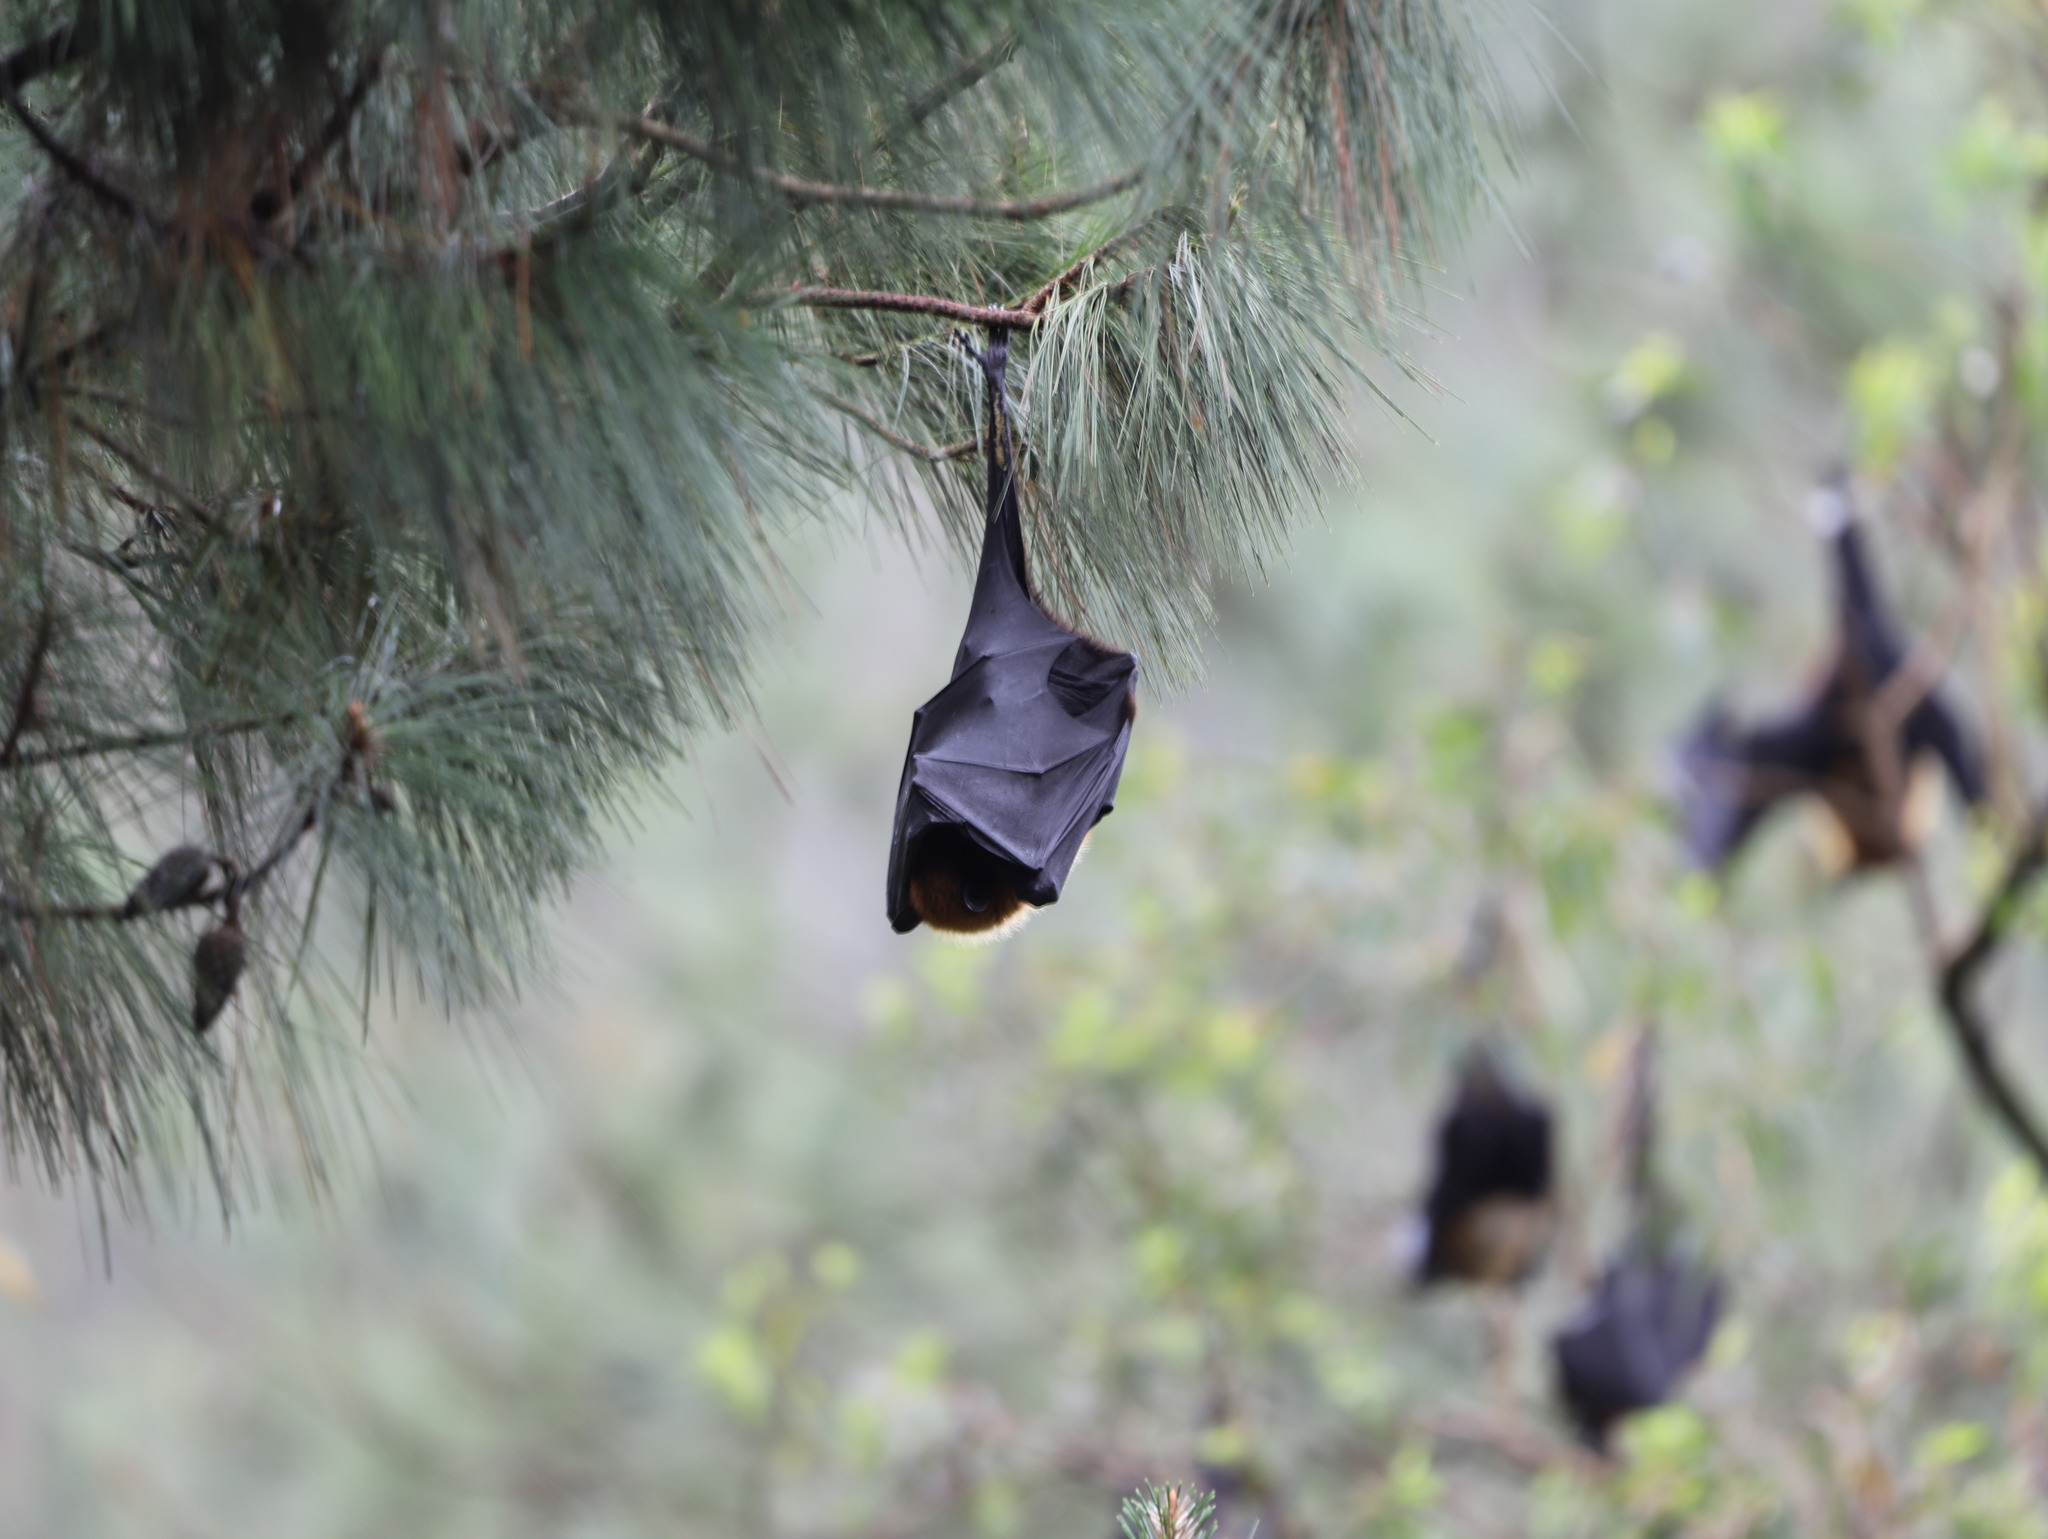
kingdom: Animalia
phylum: Chordata
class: Mammalia
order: Chiroptera
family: Pteropodidae
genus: Pteropus
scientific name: Pteropus vampyrus
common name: Large flying fox
